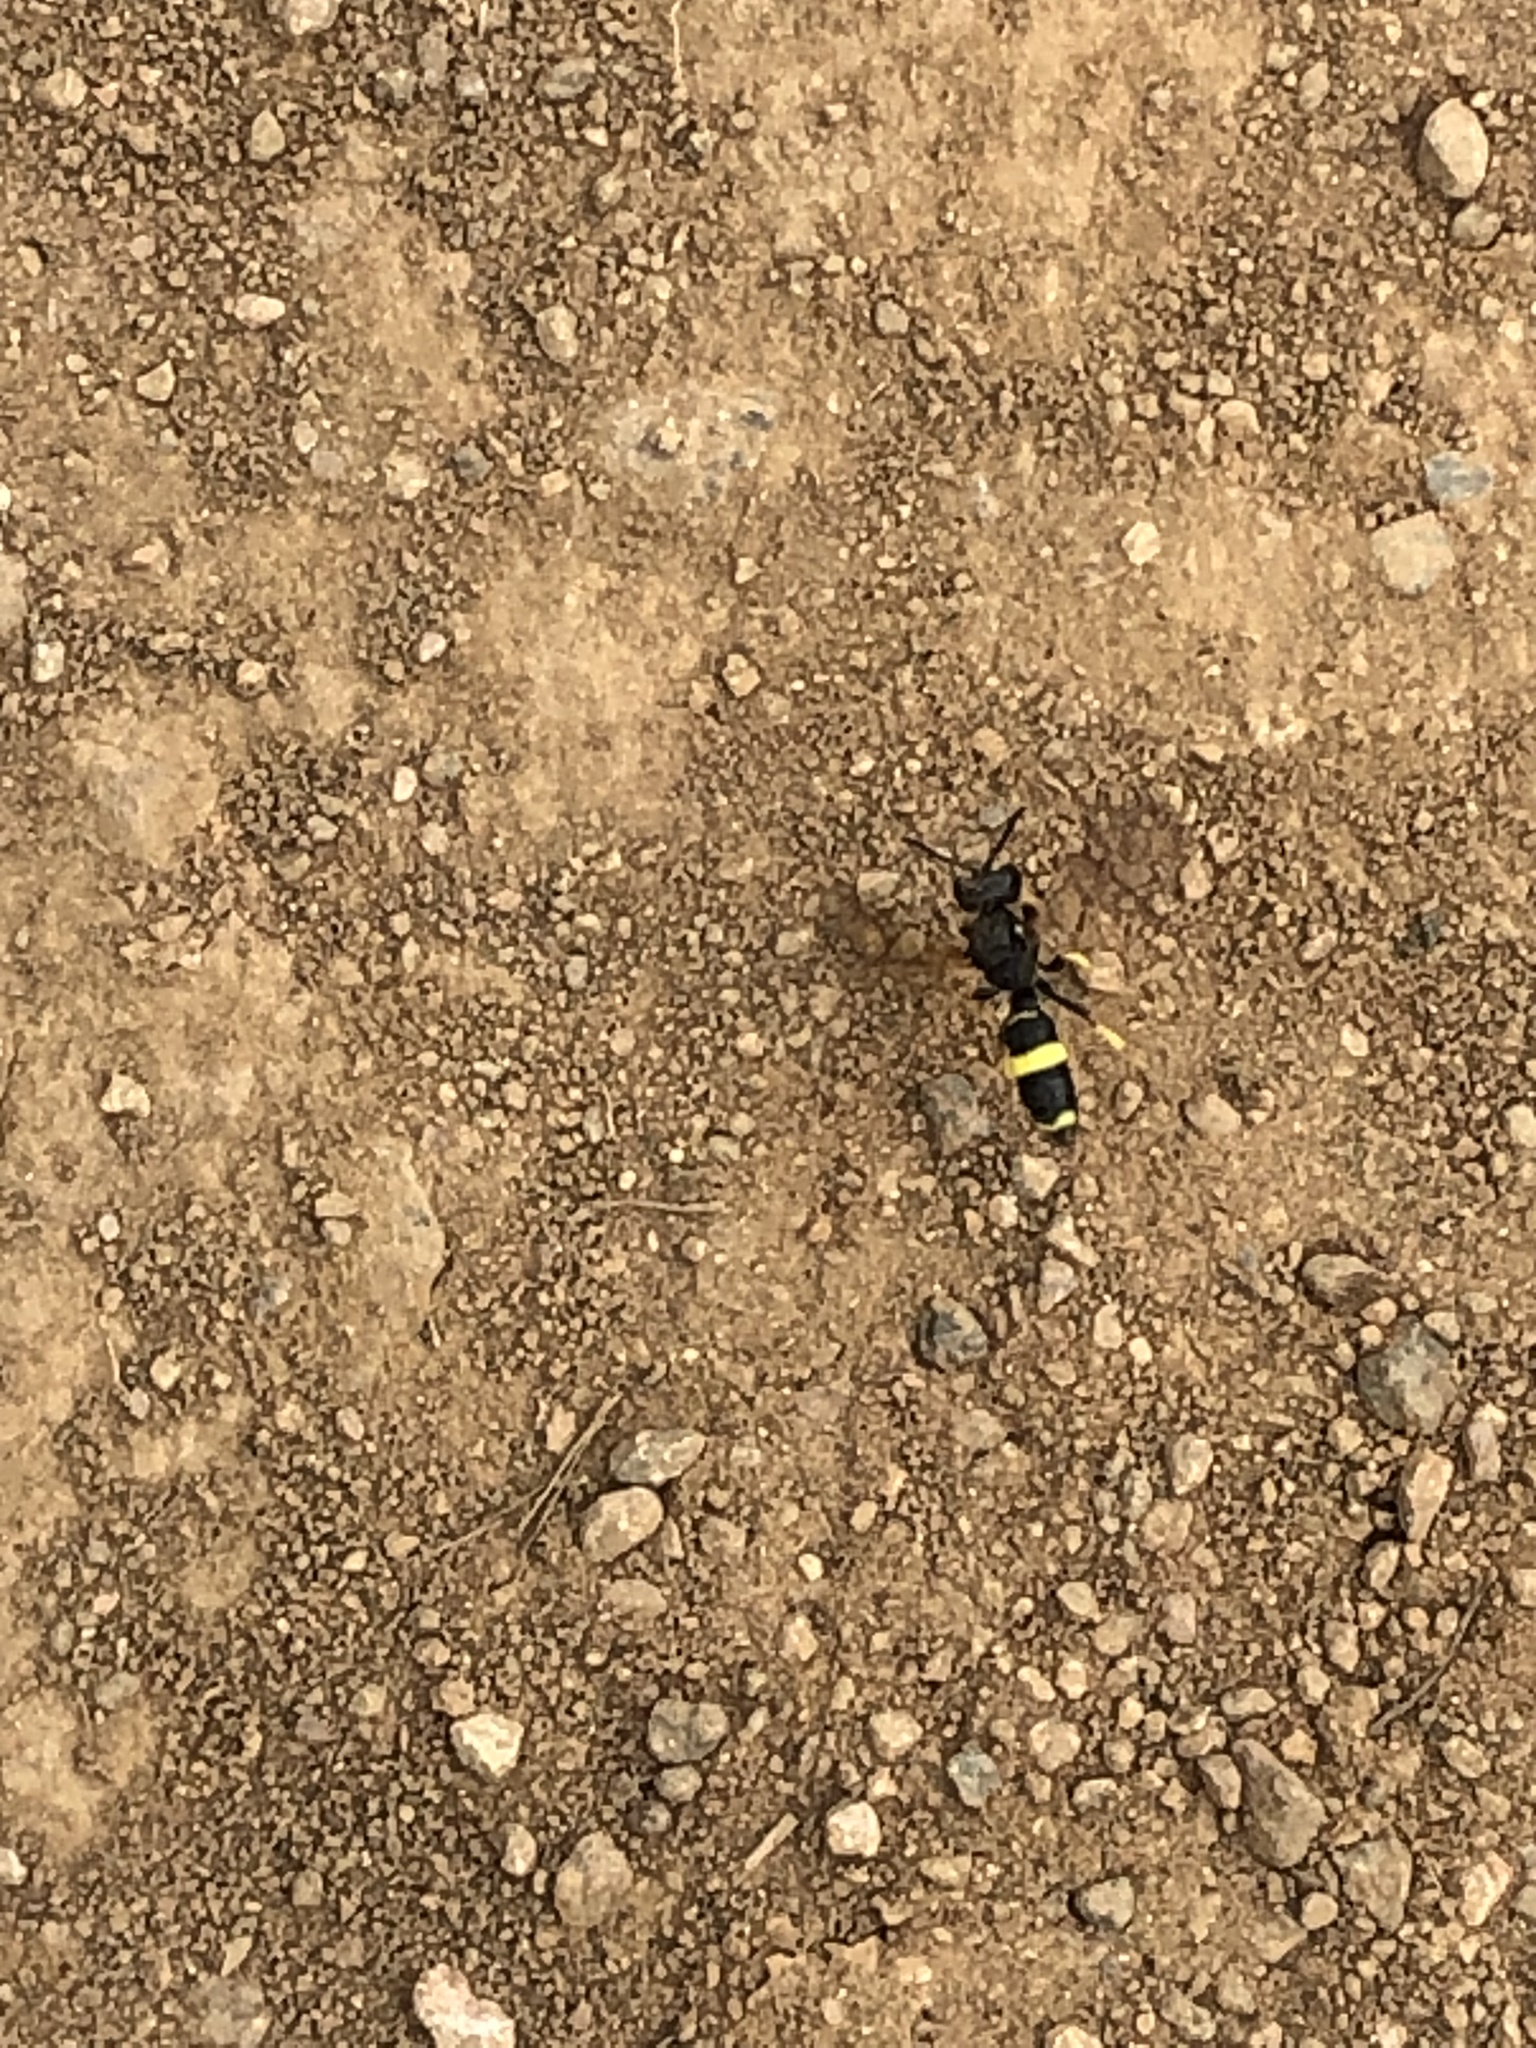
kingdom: Animalia
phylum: Arthropoda
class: Insecta
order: Hymenoptera
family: Crabronidae
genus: Cerceris
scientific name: Cerceris rybyensis
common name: Ornate tailed digger wasp
